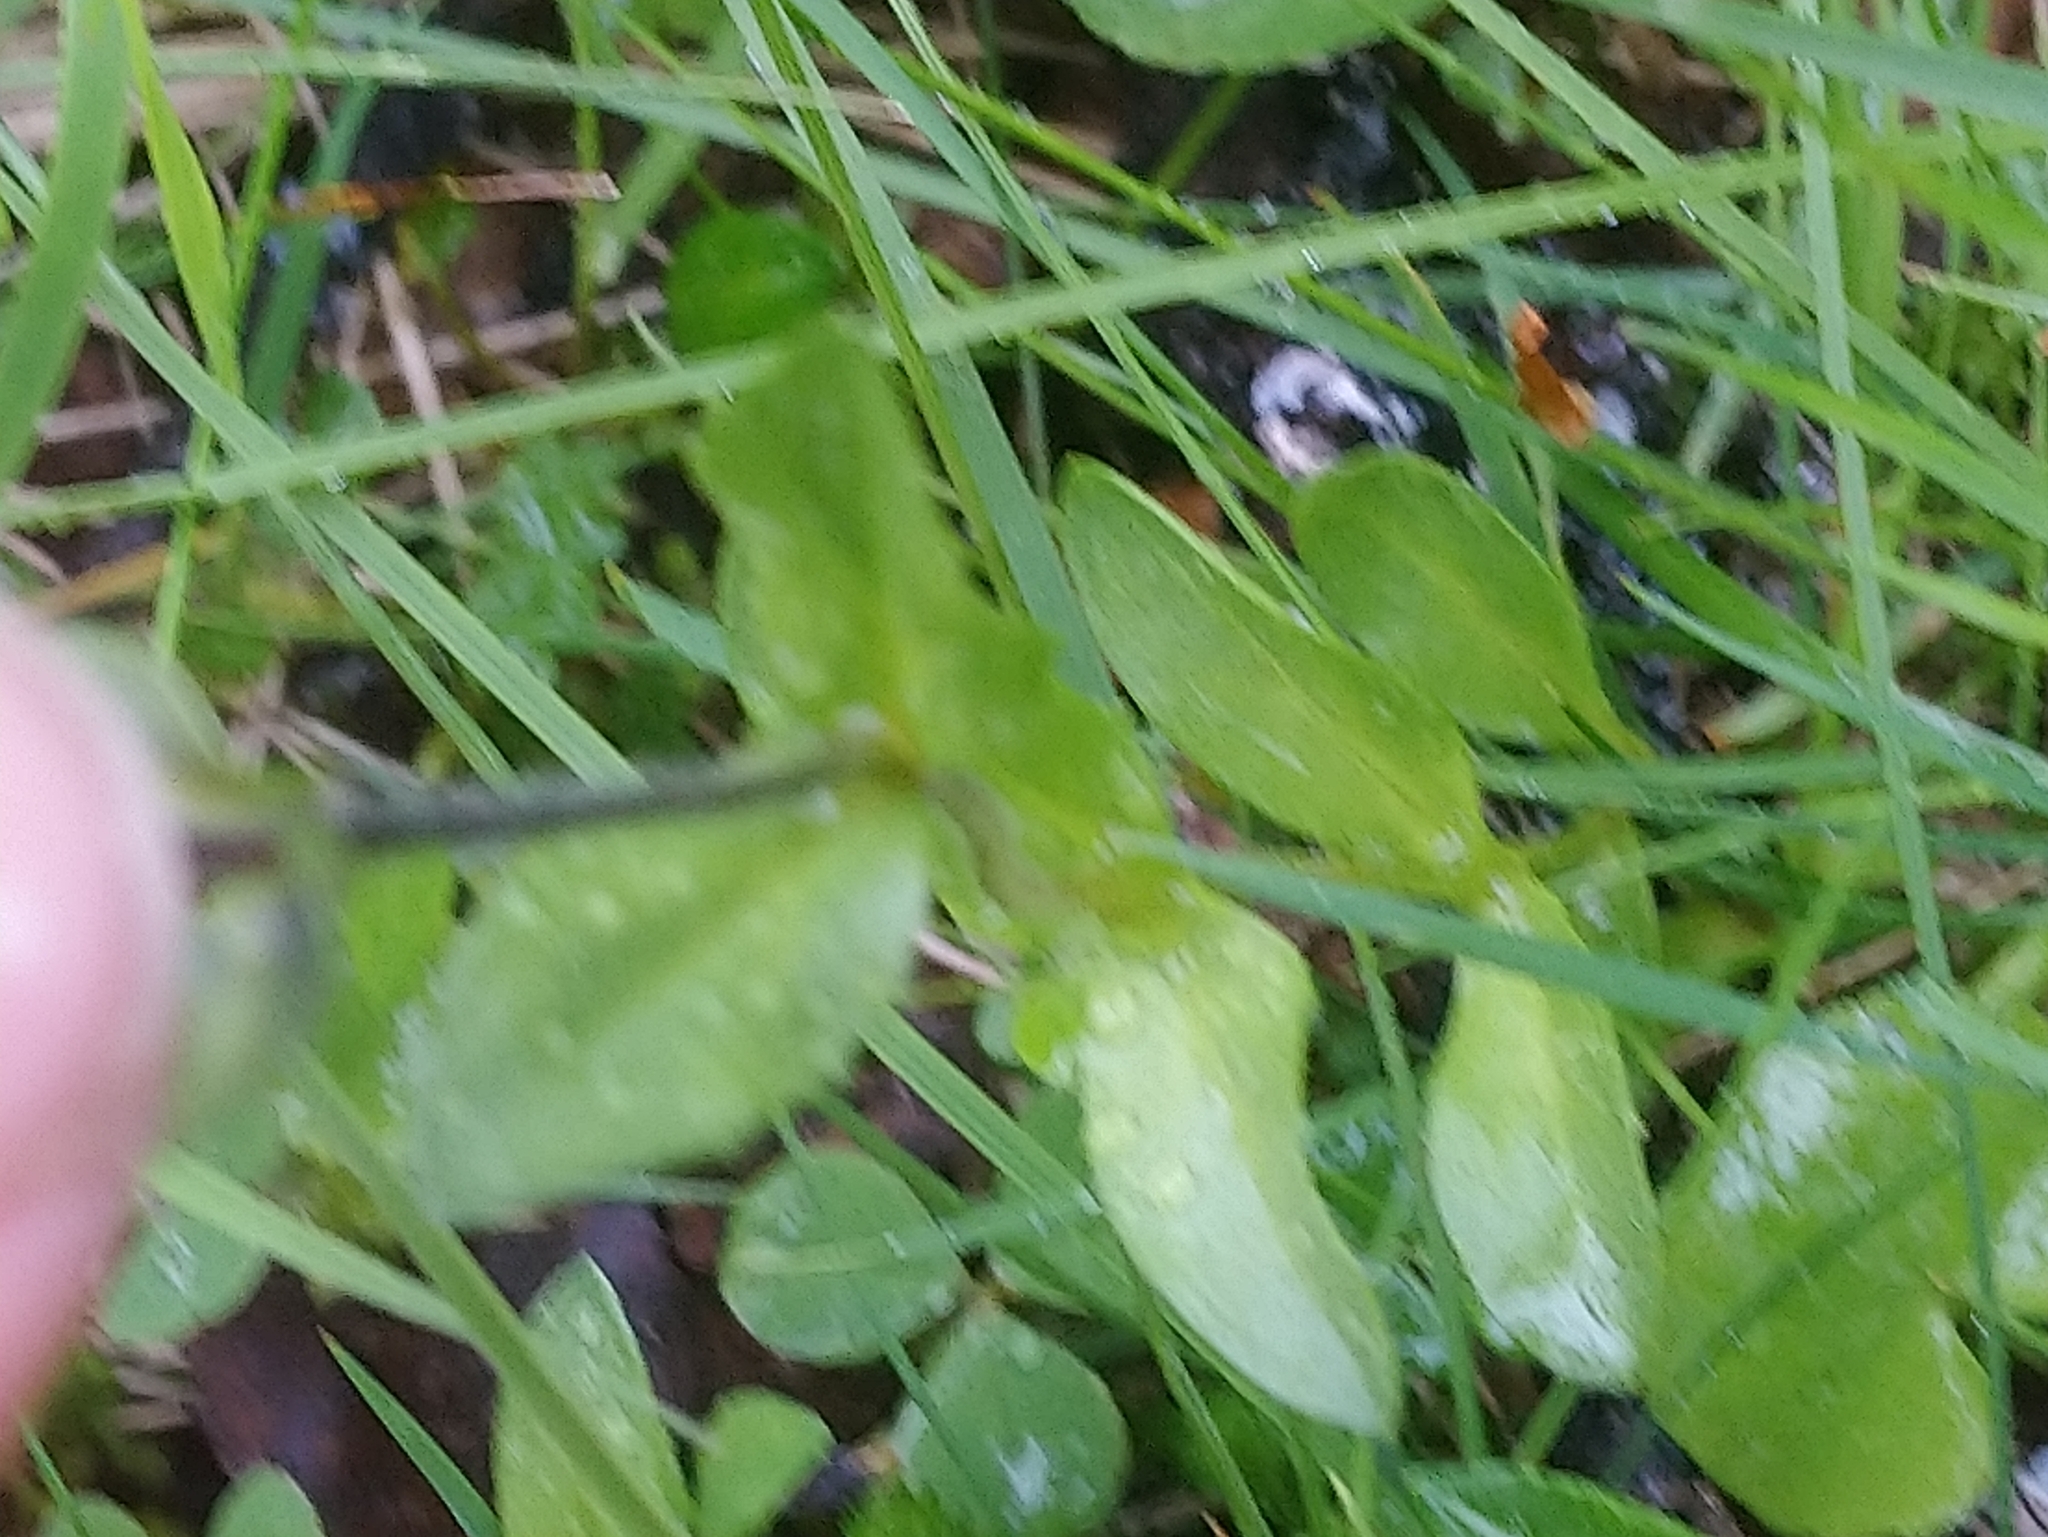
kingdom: Plantae
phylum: Tracheophyta
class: Magnoliopsida
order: Lamiales
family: Plantaginaceae
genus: Veronica
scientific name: Veronica alpina
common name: Alpine speedwell
